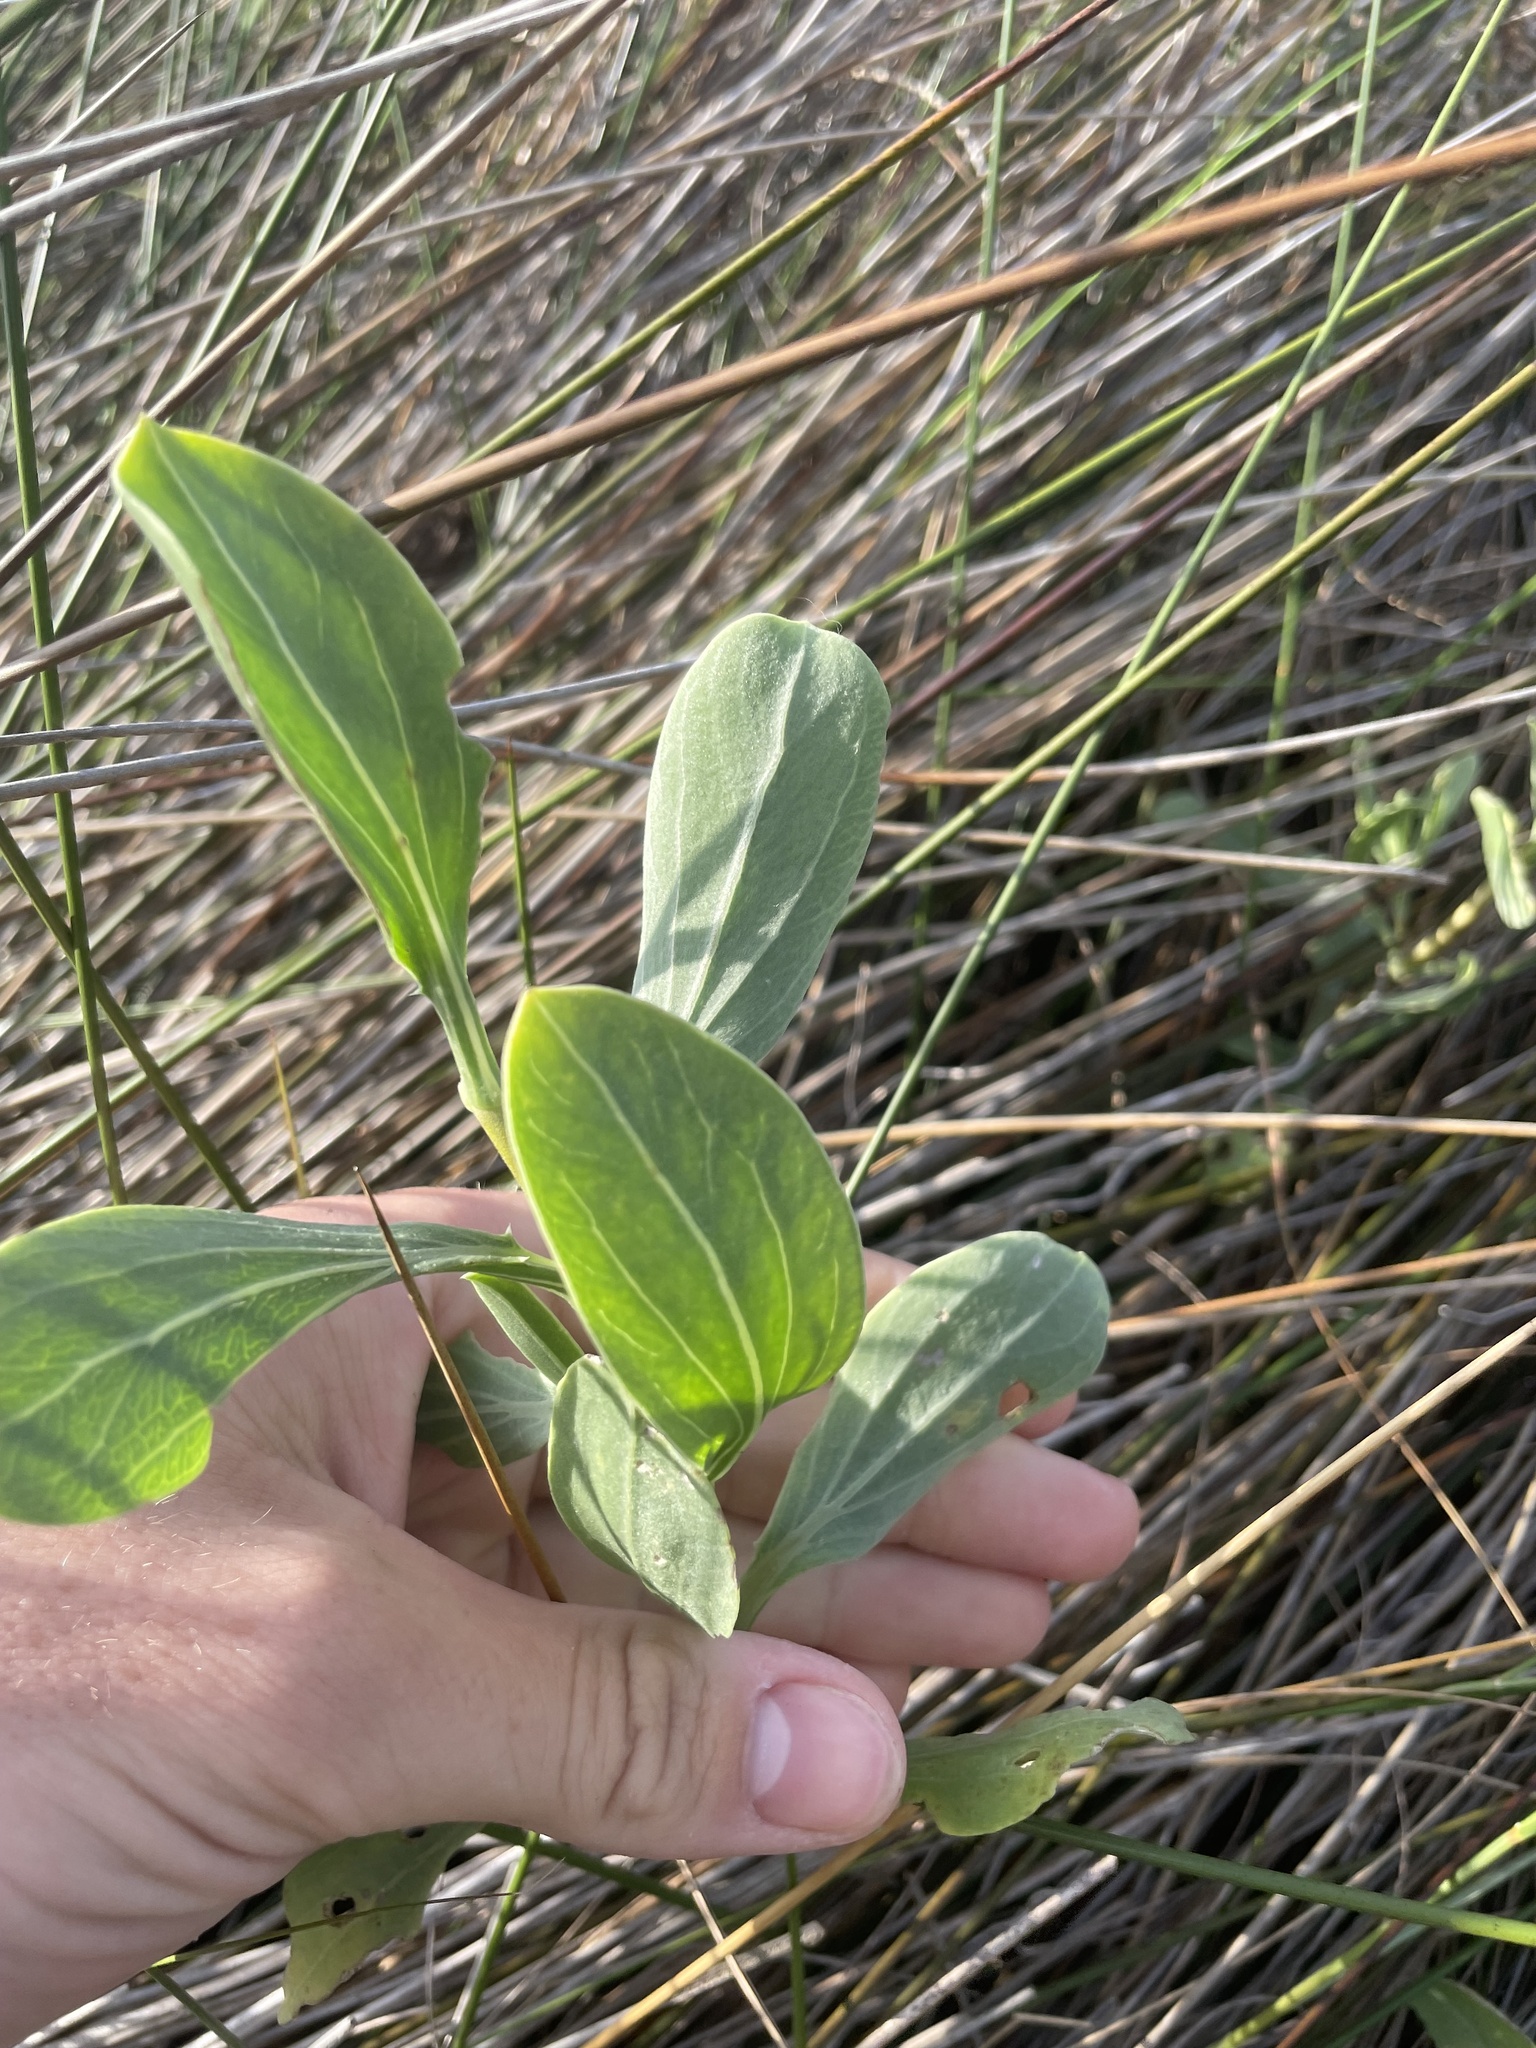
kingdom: Plantae
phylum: Tracheophyta
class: Magnoliopsida
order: Asterales
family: Asteraceae
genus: Borrichia
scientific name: Borrichia frutescens
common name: Sea oxeye
